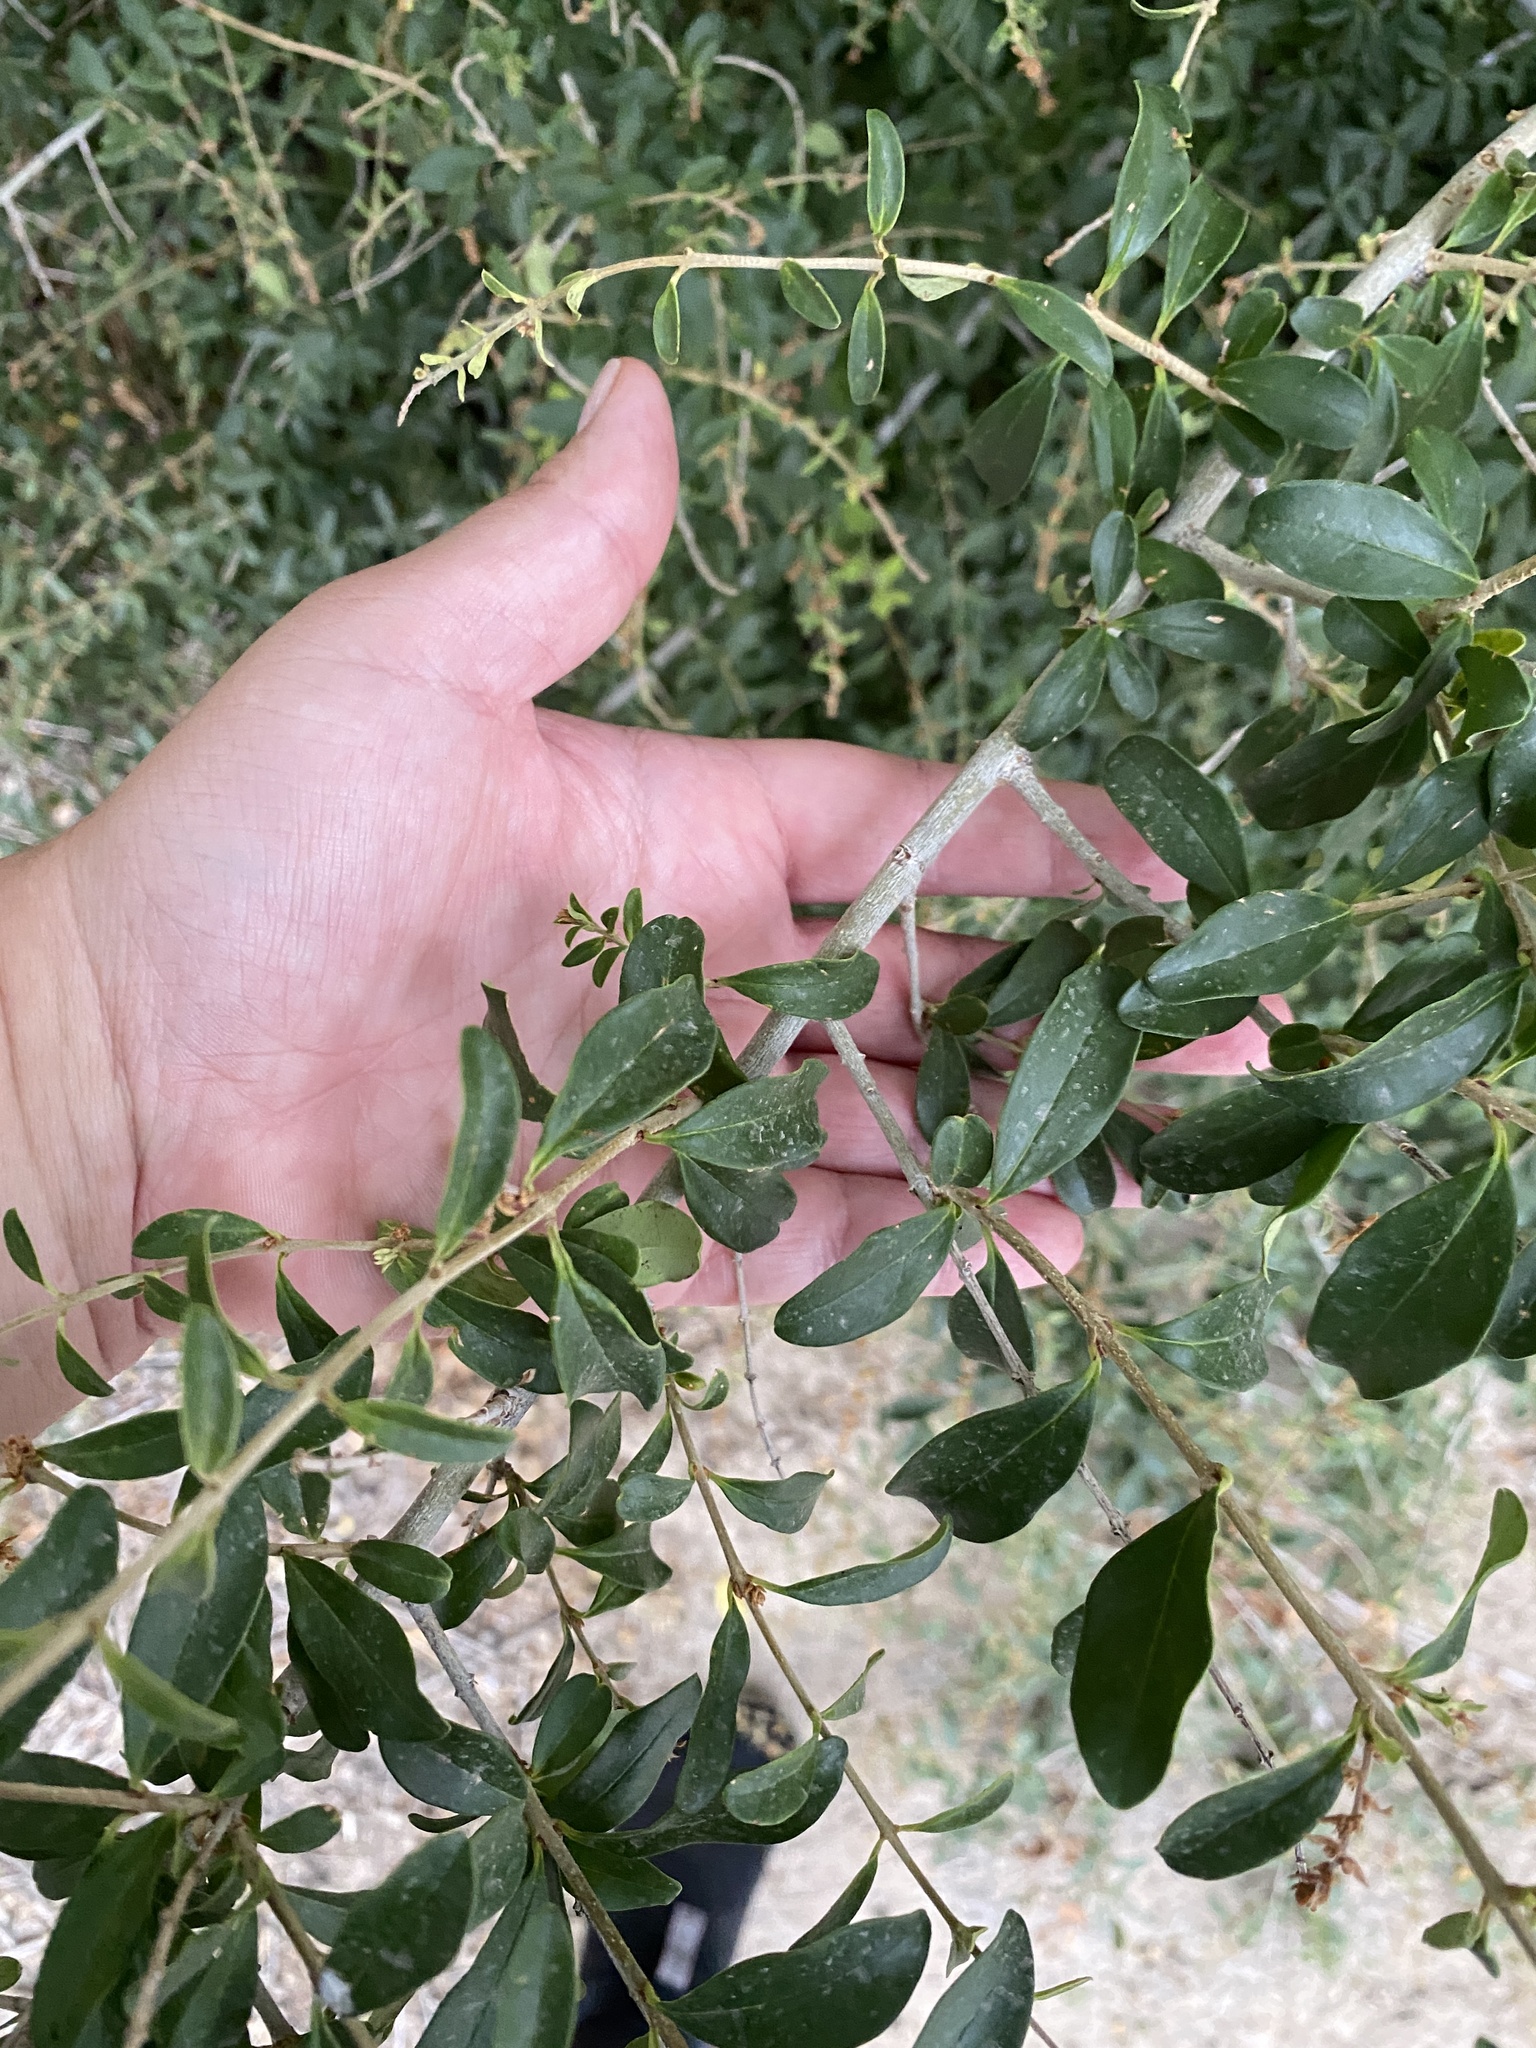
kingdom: Plantae
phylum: Tracheophyta
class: Magnoliopsida
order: Lamiales
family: Oleaceae
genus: Ligustrum
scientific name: Ligustrum quihoui
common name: Waxyleaf privet
